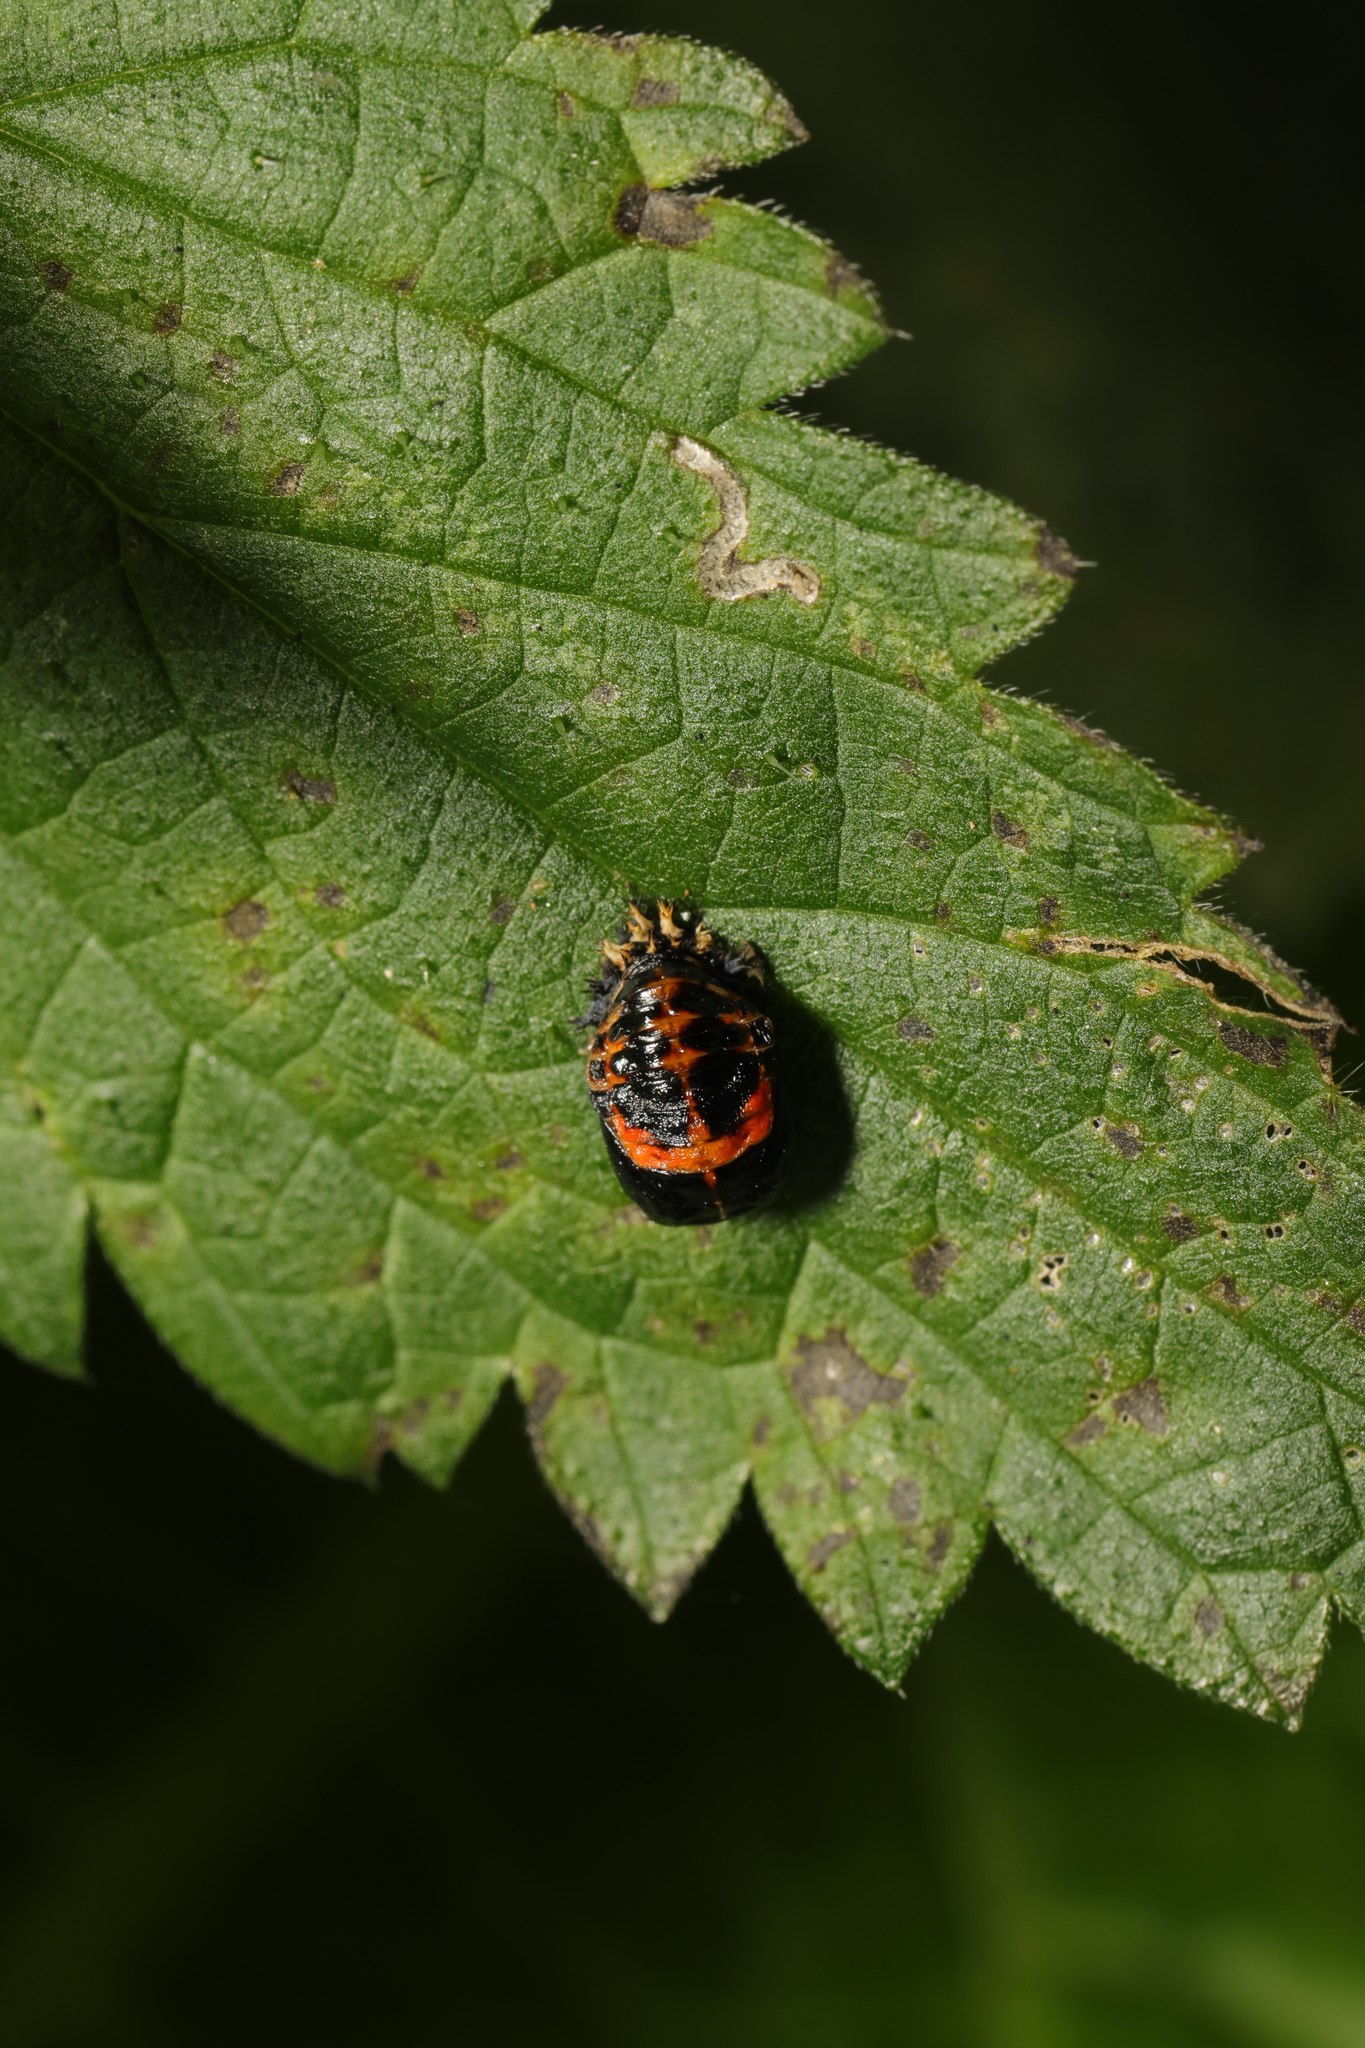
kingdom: Animalia
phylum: Arthropoda
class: Insecta
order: Coleoptera
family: Coccinellidae
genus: Harmonia
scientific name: Harmonia axyridis
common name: Harlequin ladybird
